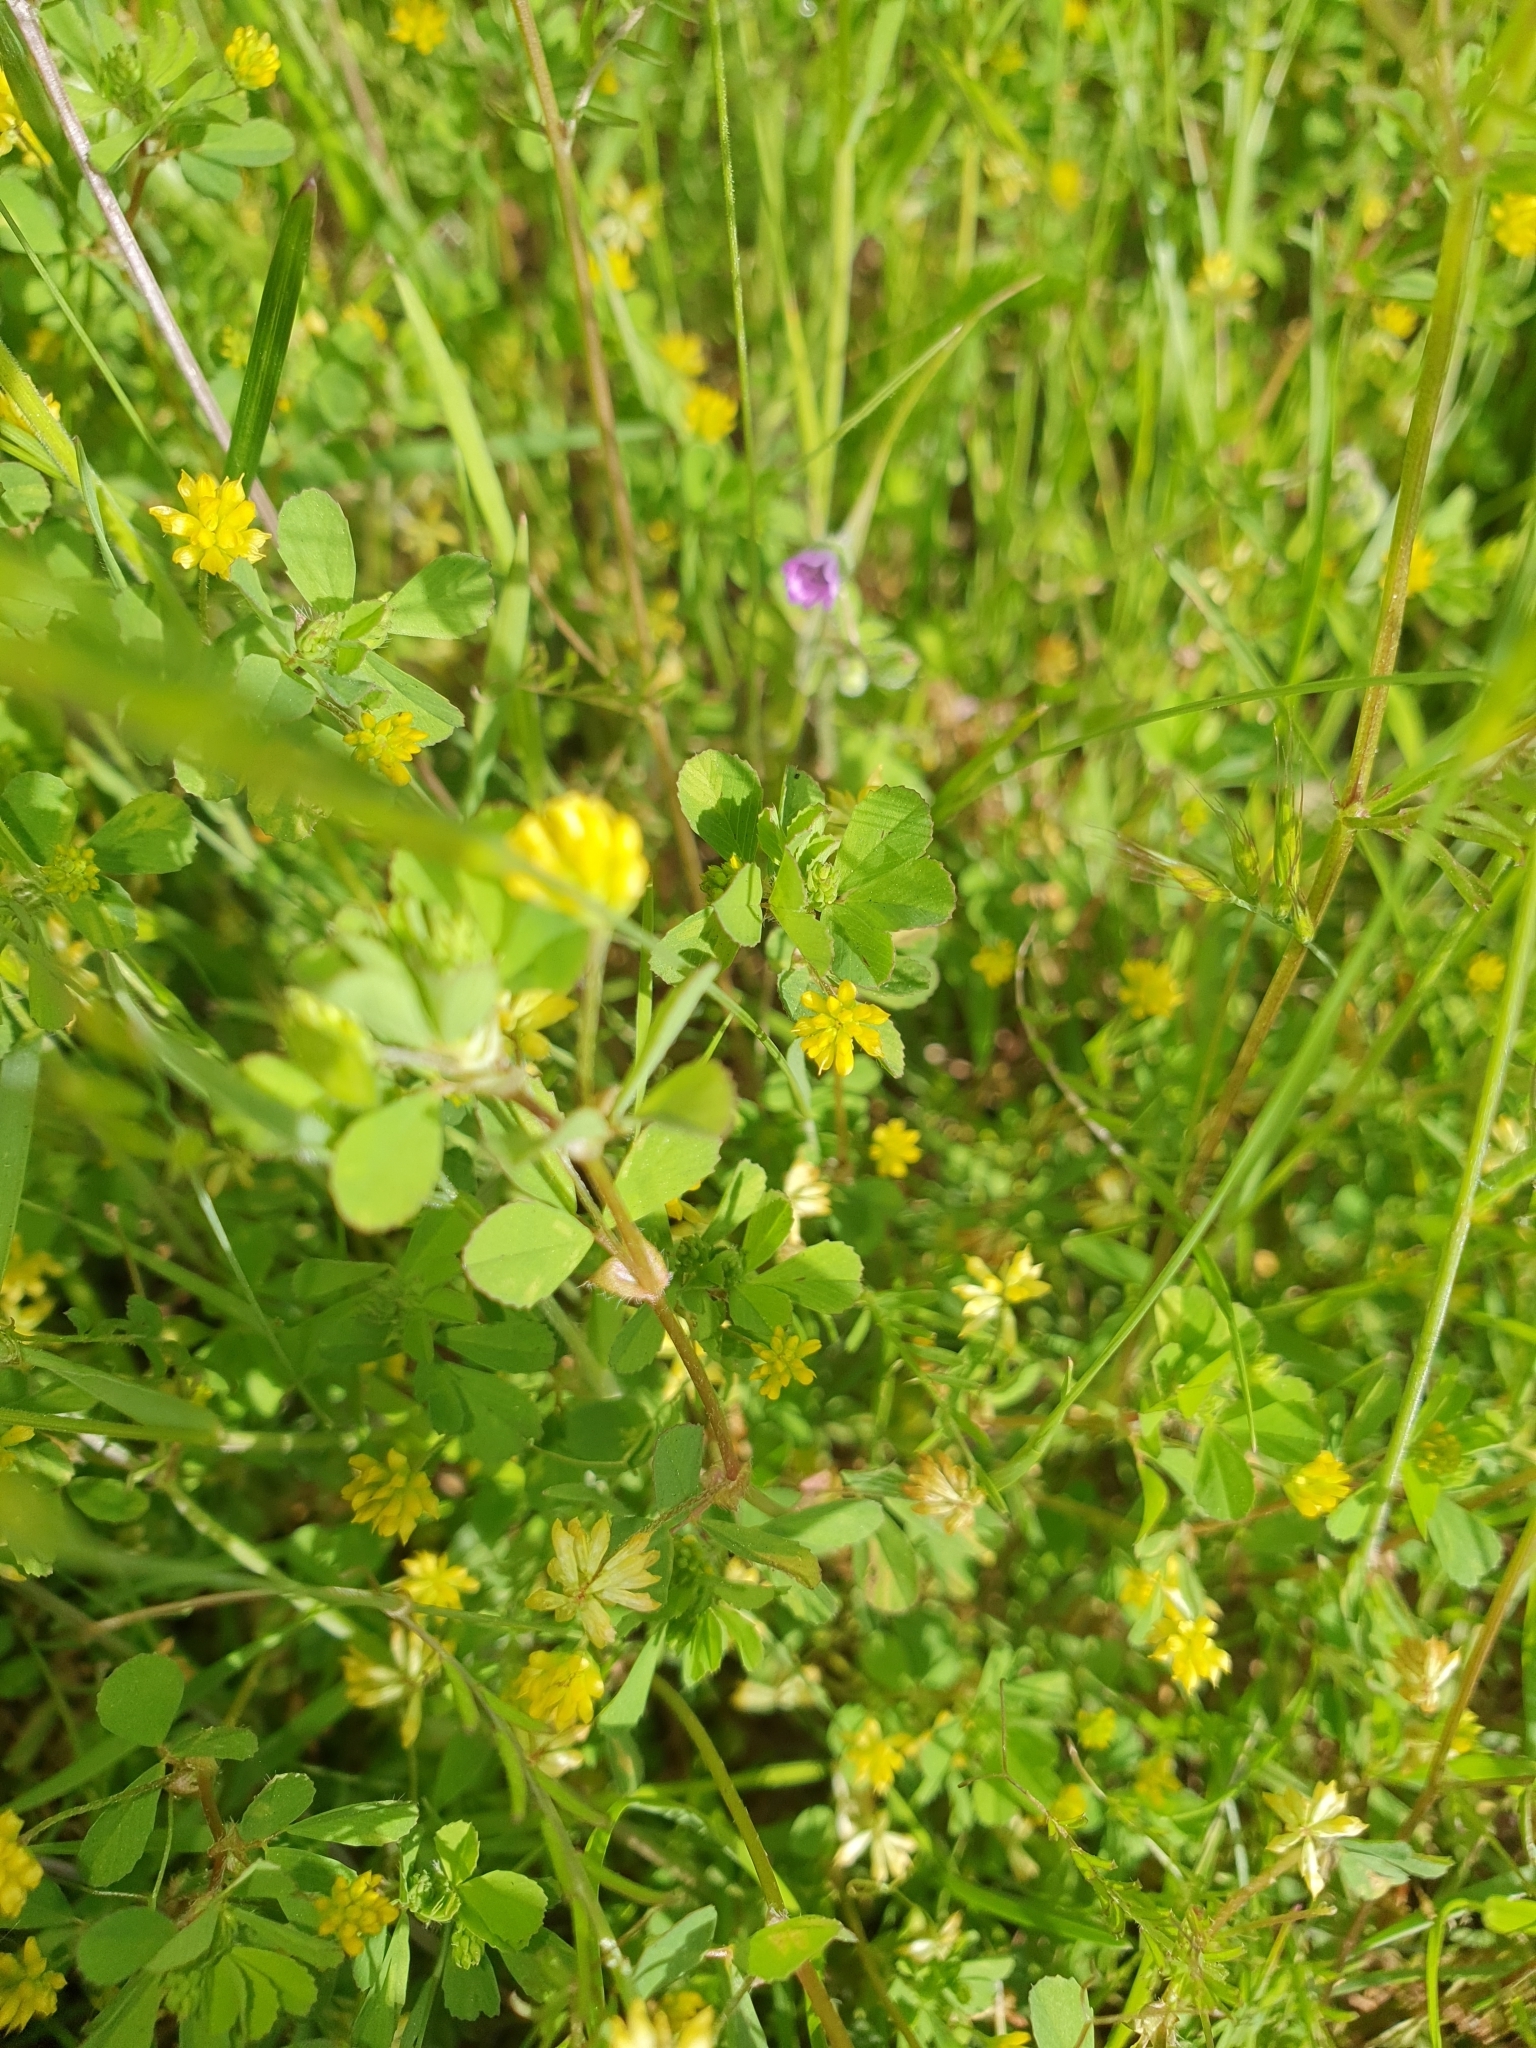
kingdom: Plantae
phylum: Tracheophyta
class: Magnoliopsida
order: Fabales
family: Fabaceae
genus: Trifolium
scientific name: Trifolium dubium
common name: Suckling clover
